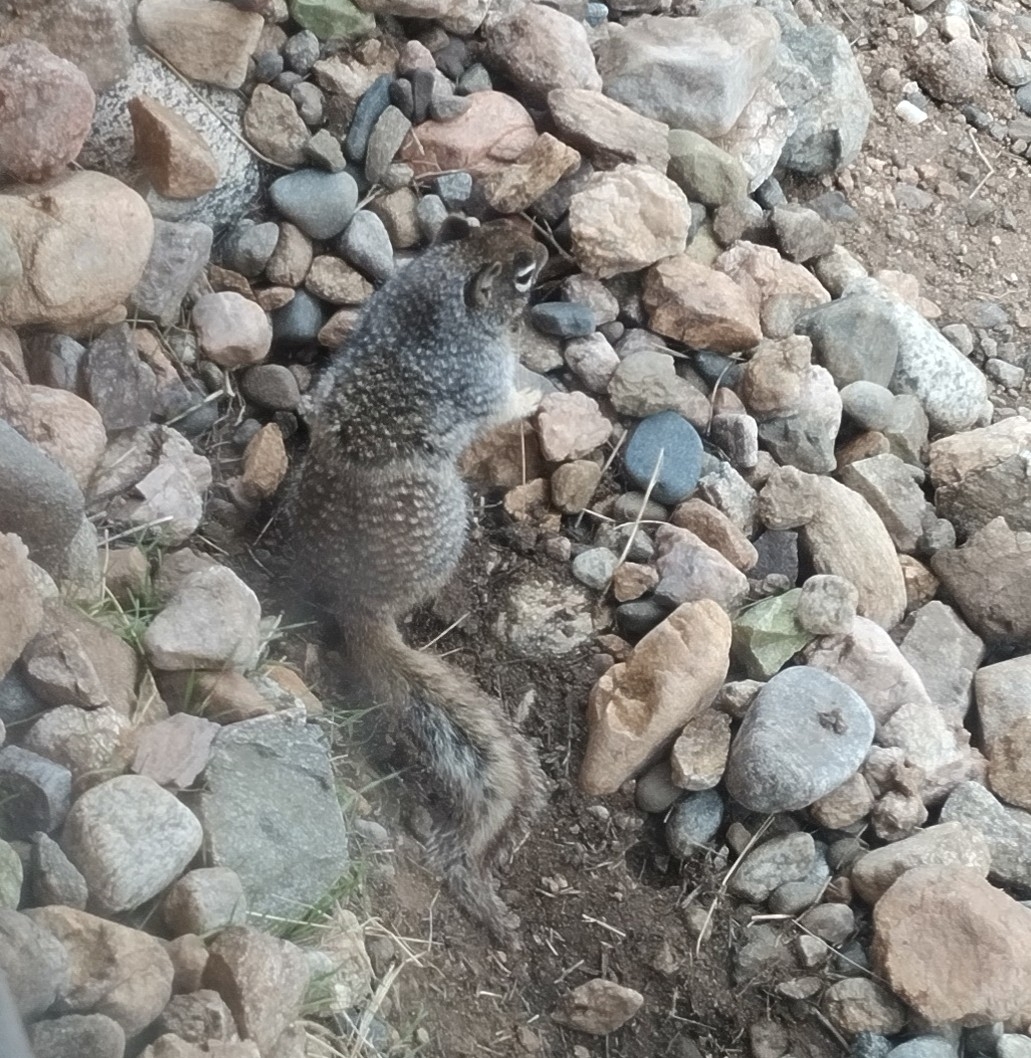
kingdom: Animalia
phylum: Chordata
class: Mammalia
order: Rodentia
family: Sciuridae
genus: Otospermophilus
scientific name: Otospermophilus variegatus
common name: Rock squirrel
